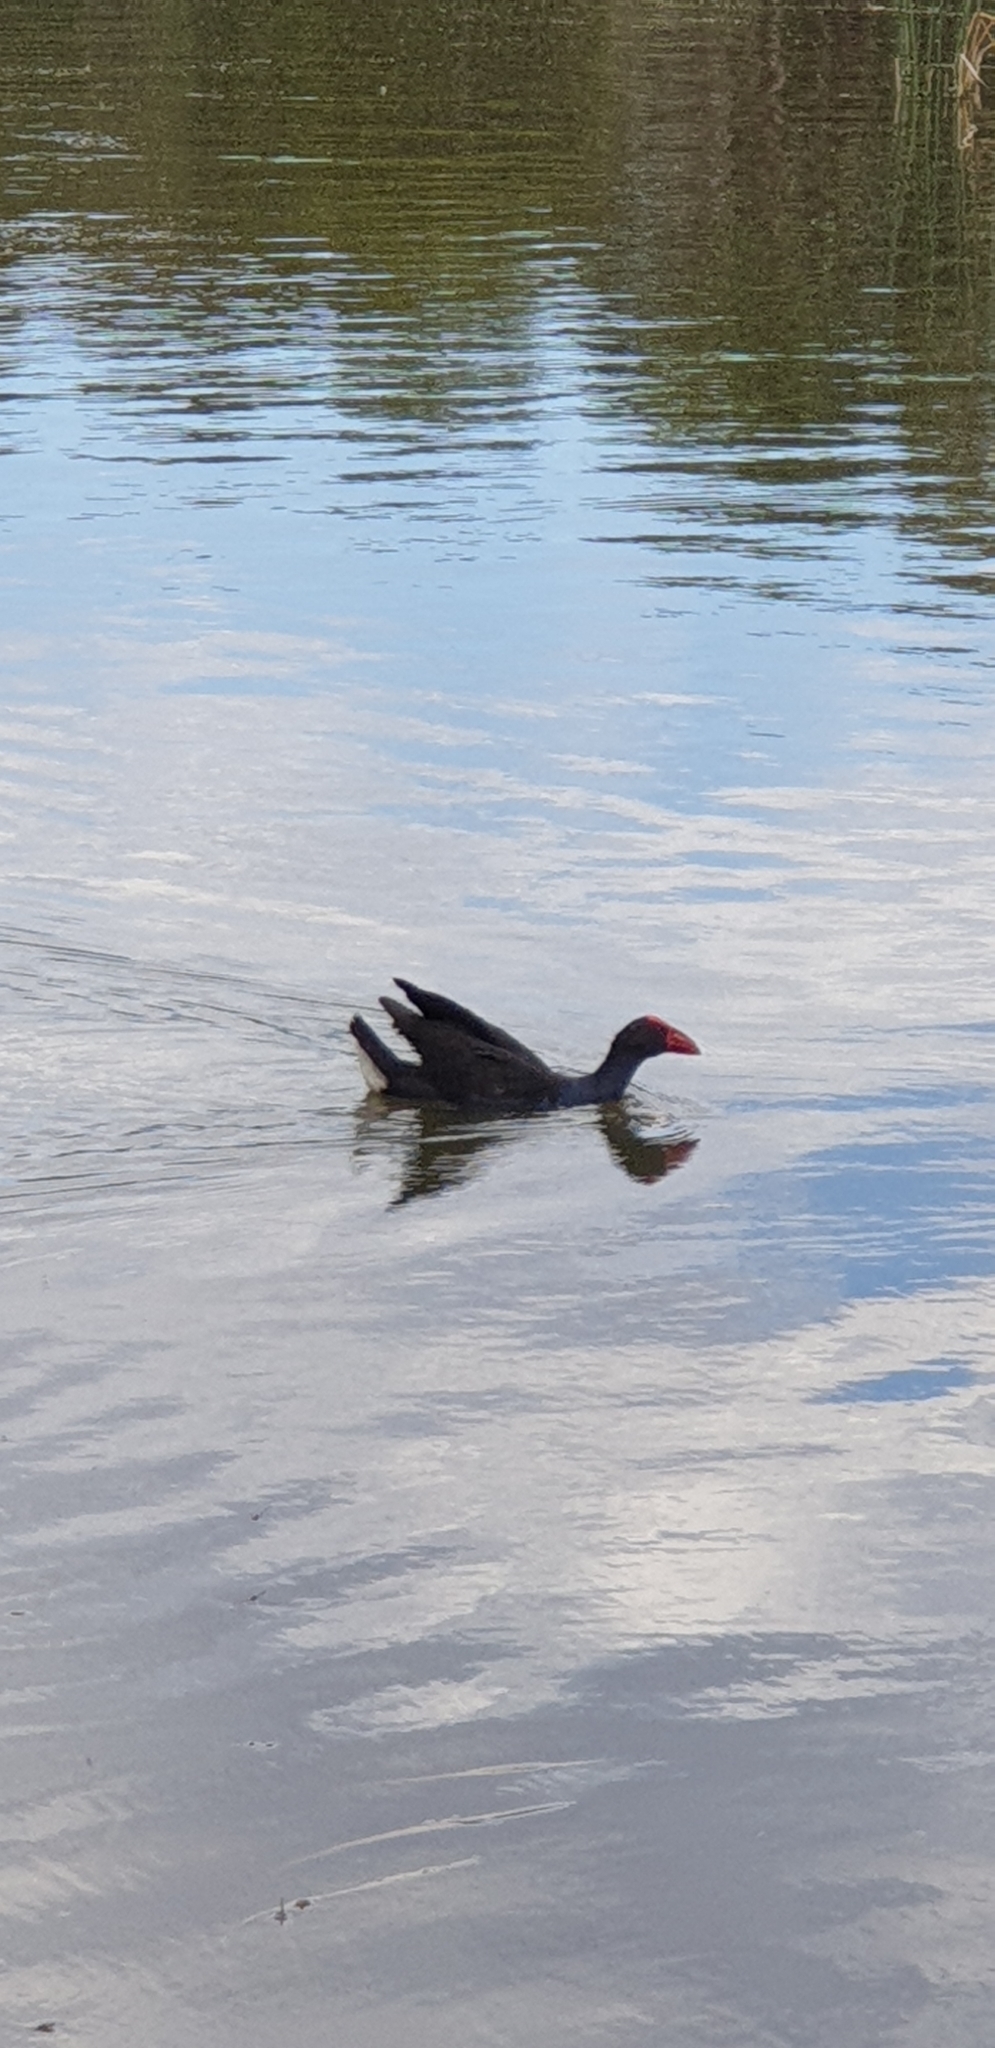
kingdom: Animalia
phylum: Chordata
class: Aves
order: Gruiformes
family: Rallidae
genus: Porphyrio
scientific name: Porphyrio melanotus
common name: Australasian swamphen
